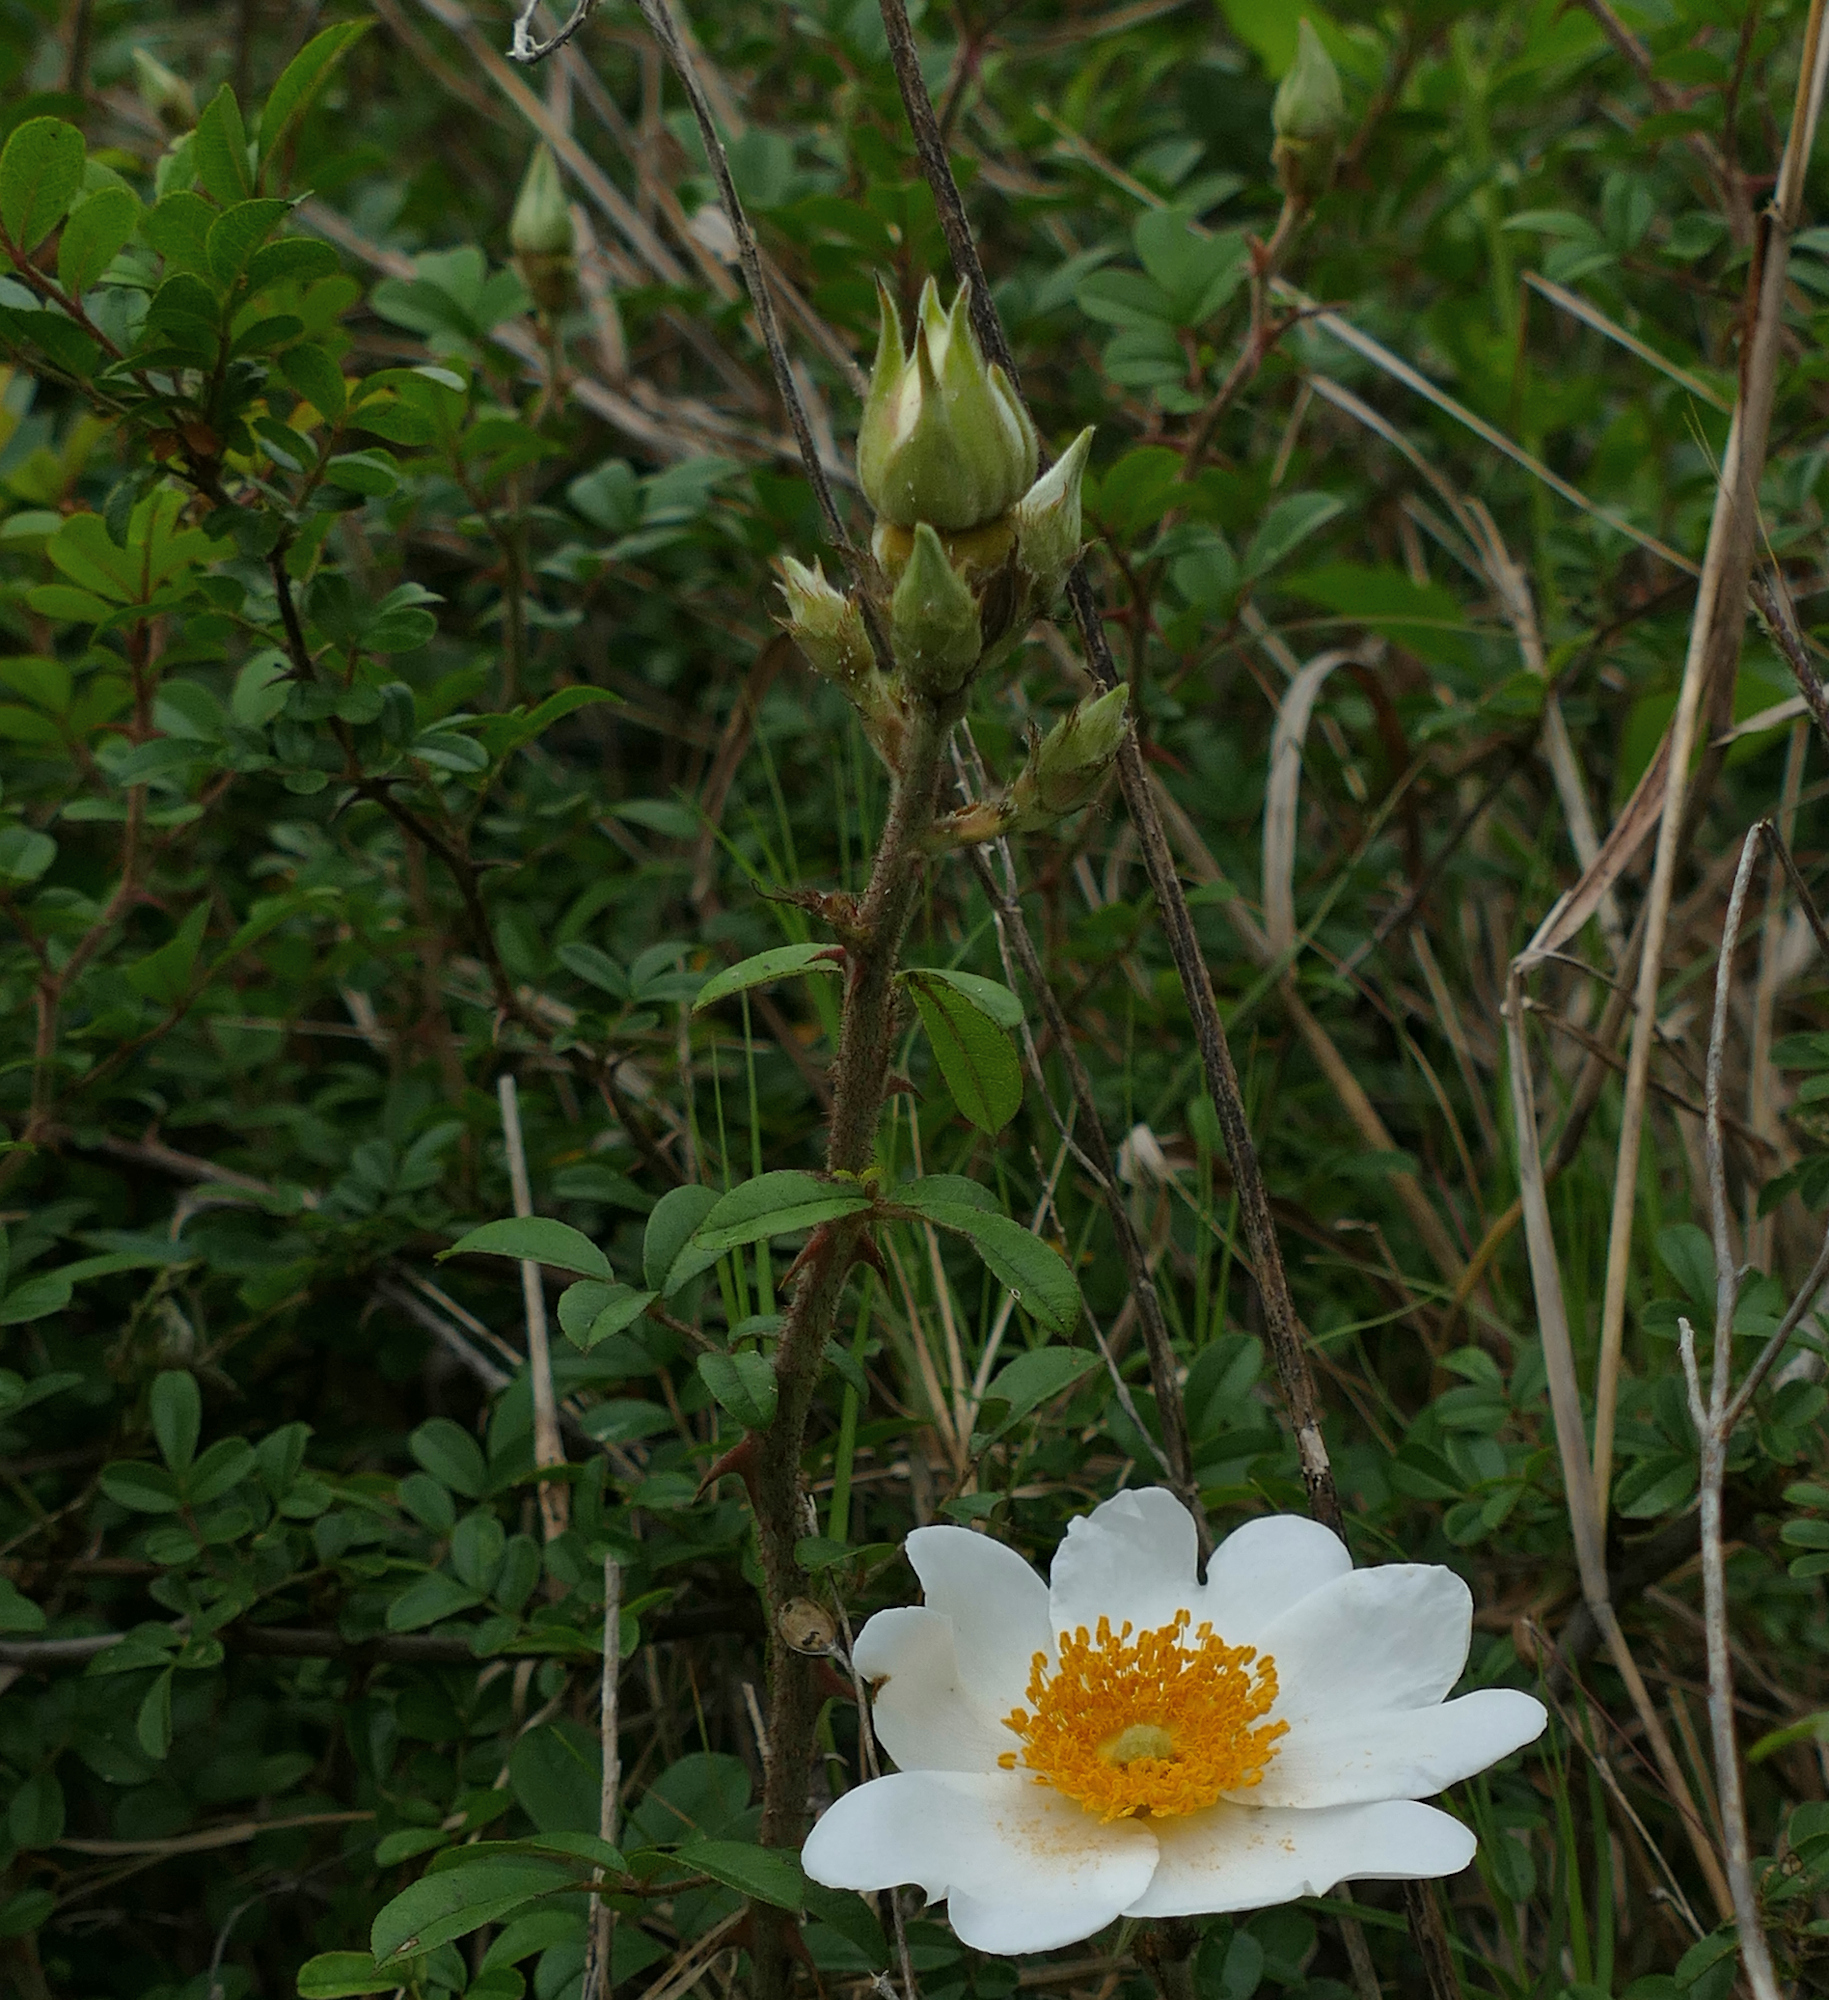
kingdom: Plantae
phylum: Tracheophyta
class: Magnoliopsida
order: Rosales
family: Rosaceae
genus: Rosa
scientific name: Rosa bracteata
